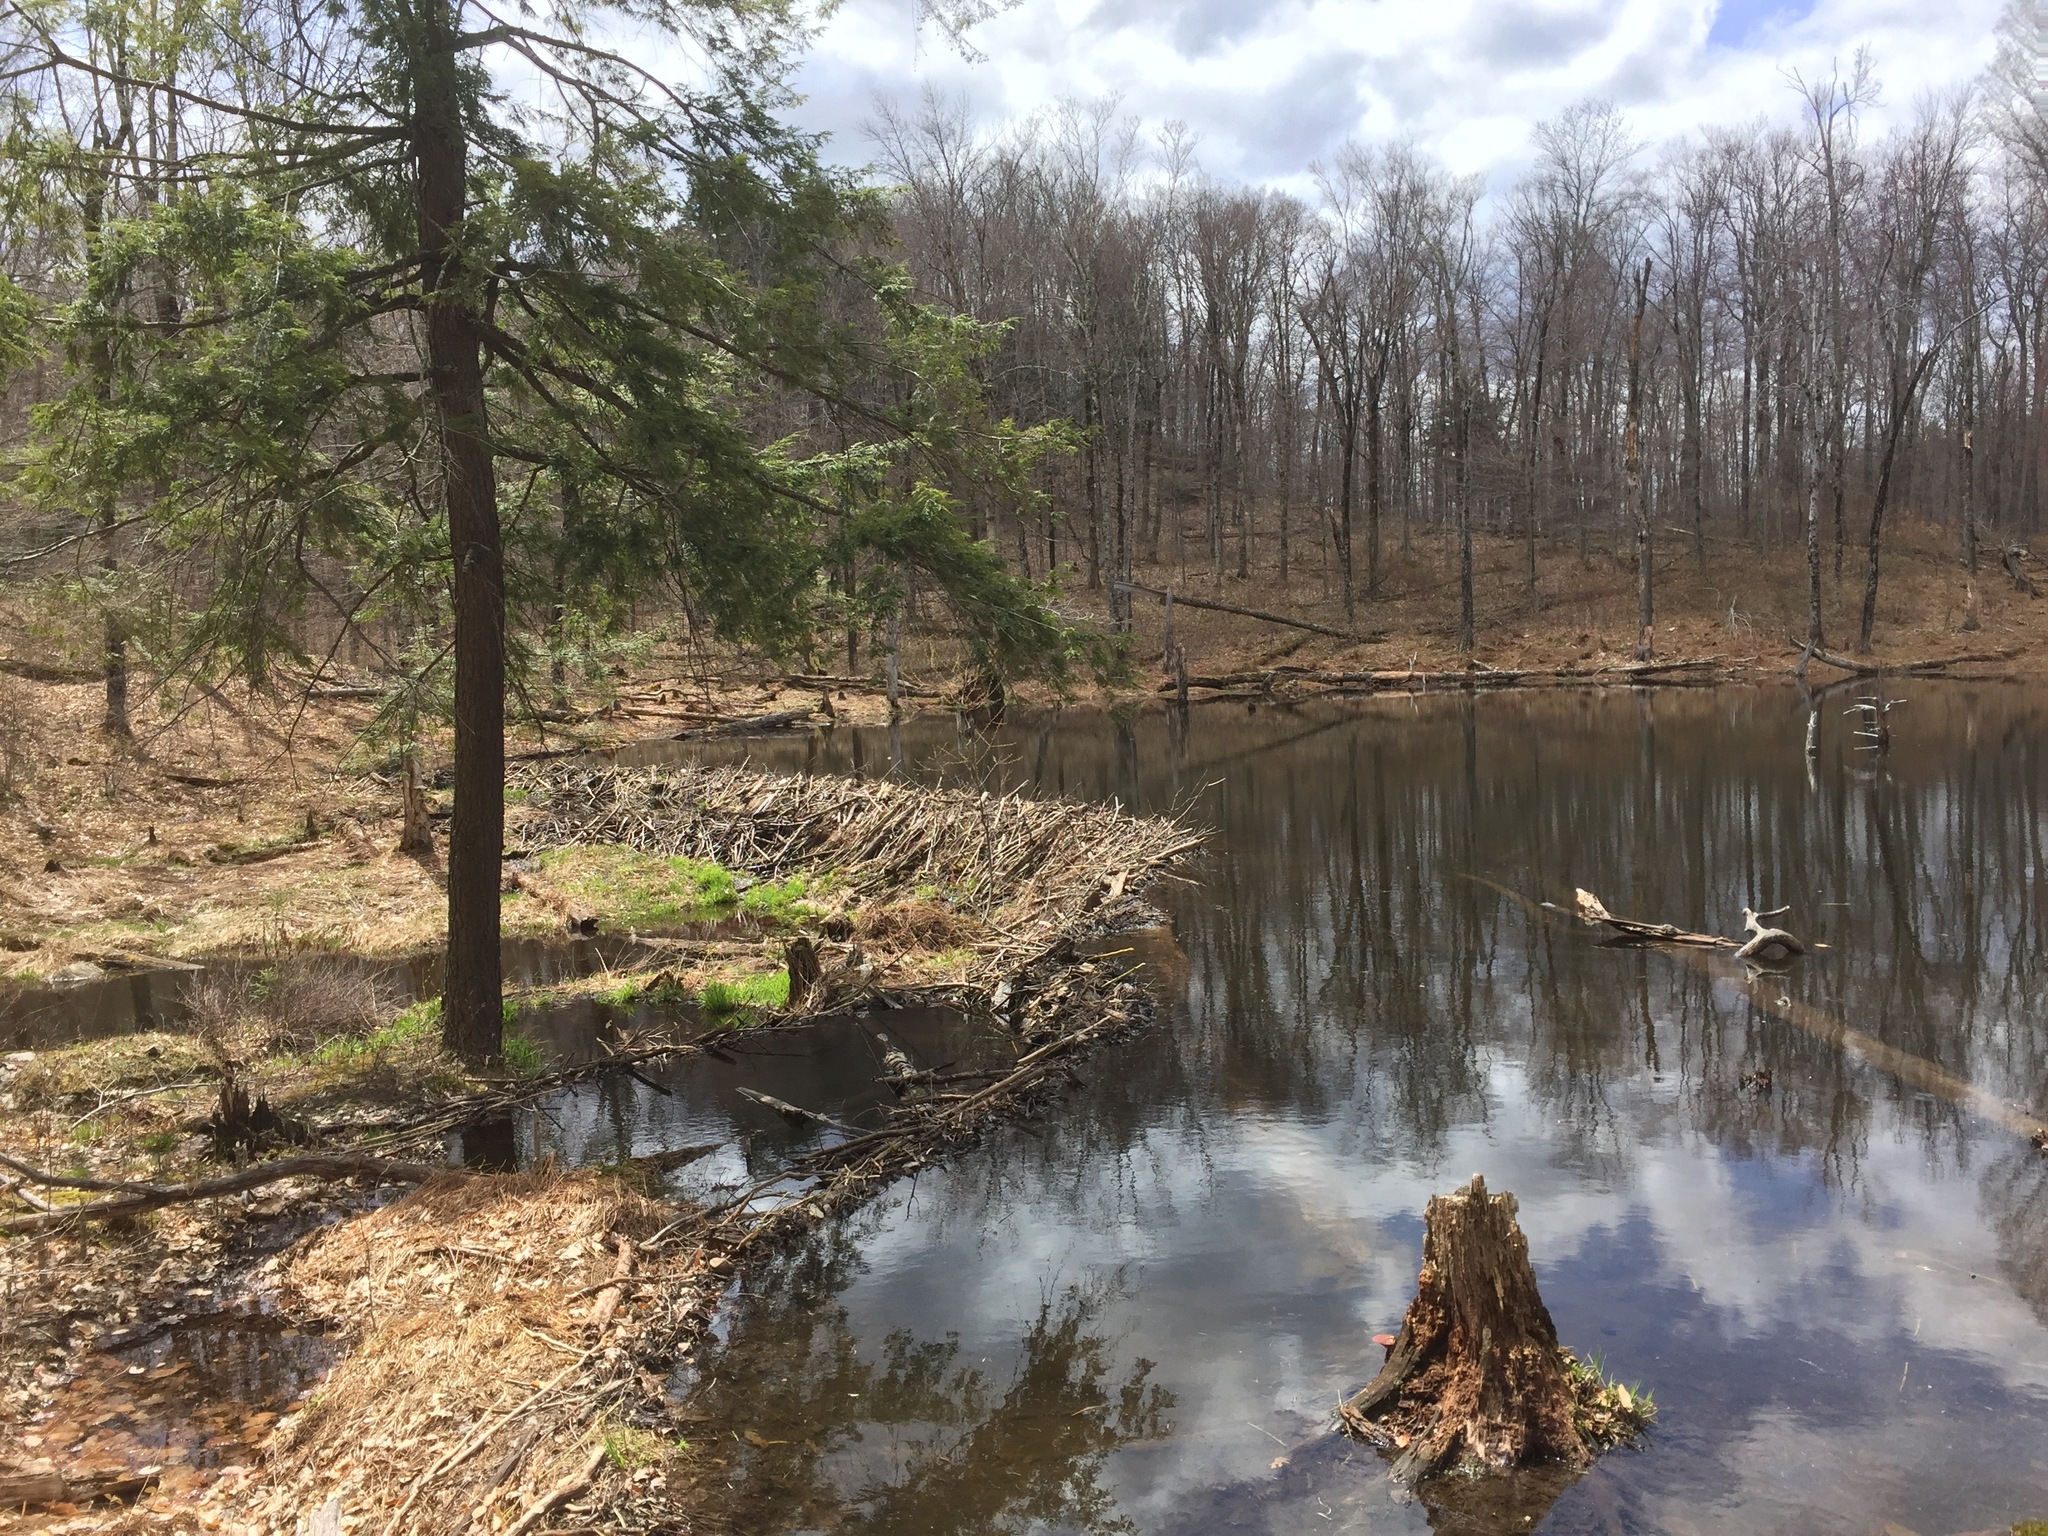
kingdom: Animalia
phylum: Chordata
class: Mammalia
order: Rodentia
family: Castoridae
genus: Castor
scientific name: Castor canadensis
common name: American beaver
